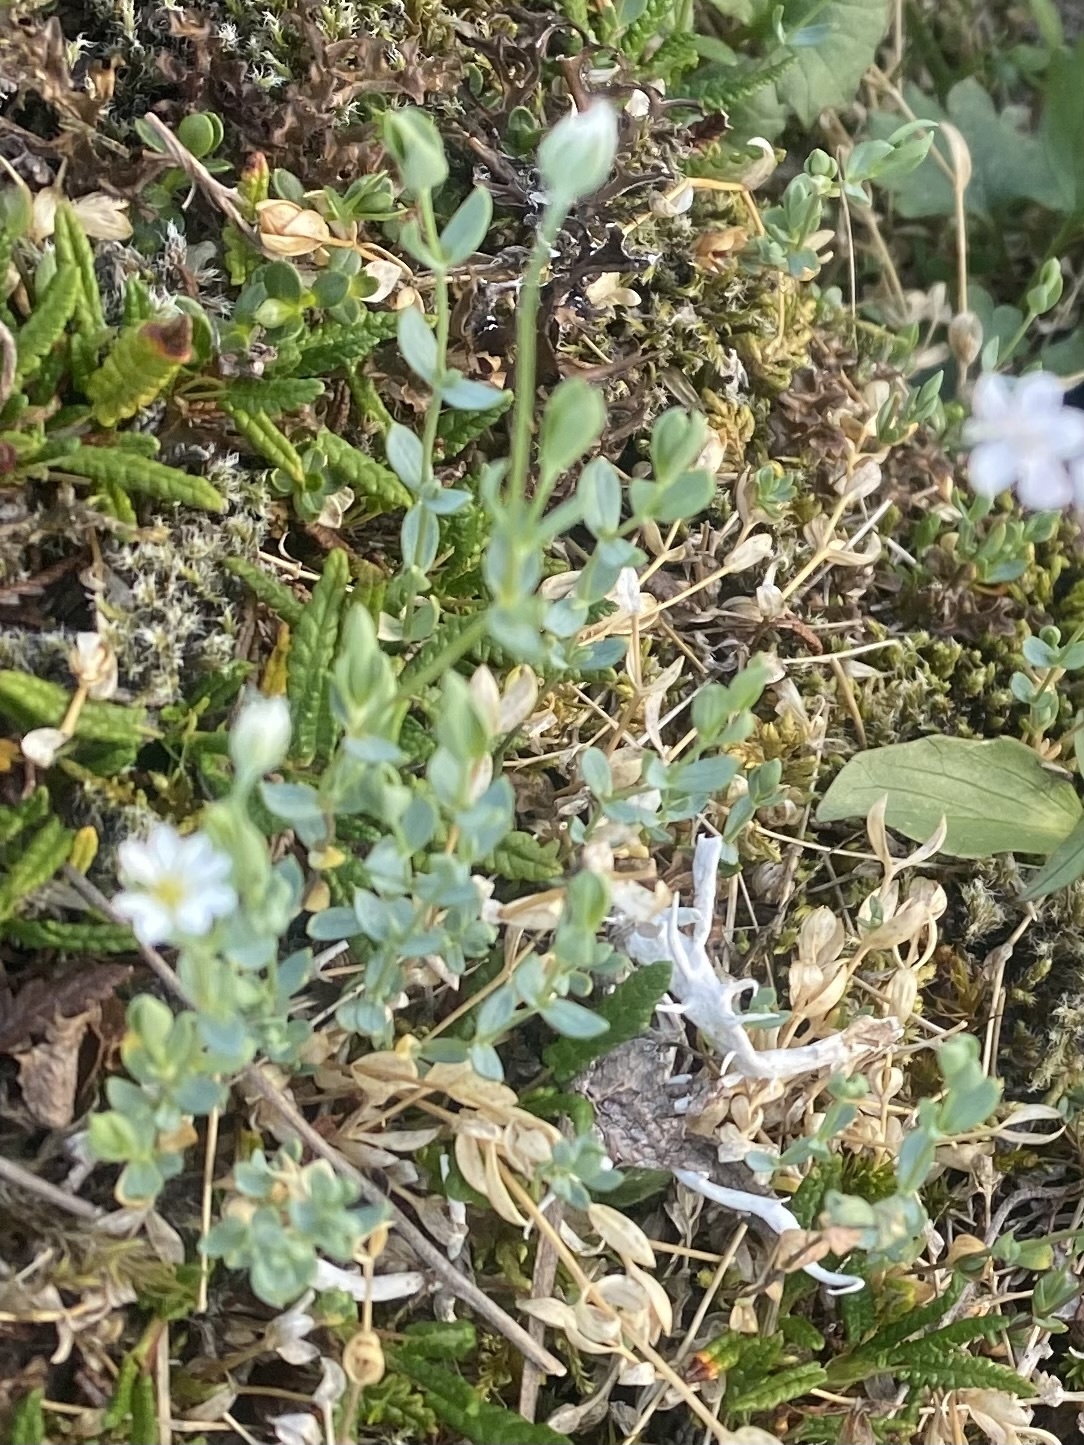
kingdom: Plantae
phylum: Tracheophyta
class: Magnoliopsida
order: Caryophyllales
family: Caryophyllaceae
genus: Stellaria
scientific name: Stellaria longipes
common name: Goldie's starwort
